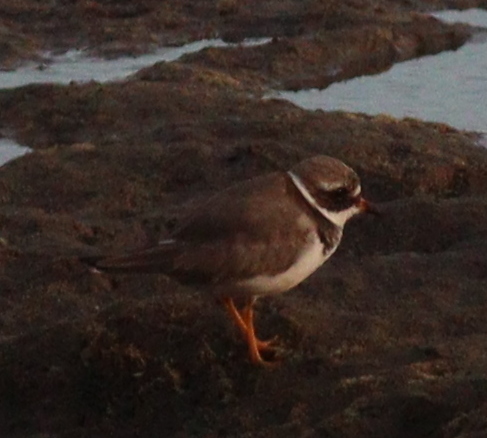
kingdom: Animalia
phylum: Chordata
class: Aves
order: Charadriiformes
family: Charadriidae
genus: Charadrius
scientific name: Charadrius hiaticula
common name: Common ringed plover
